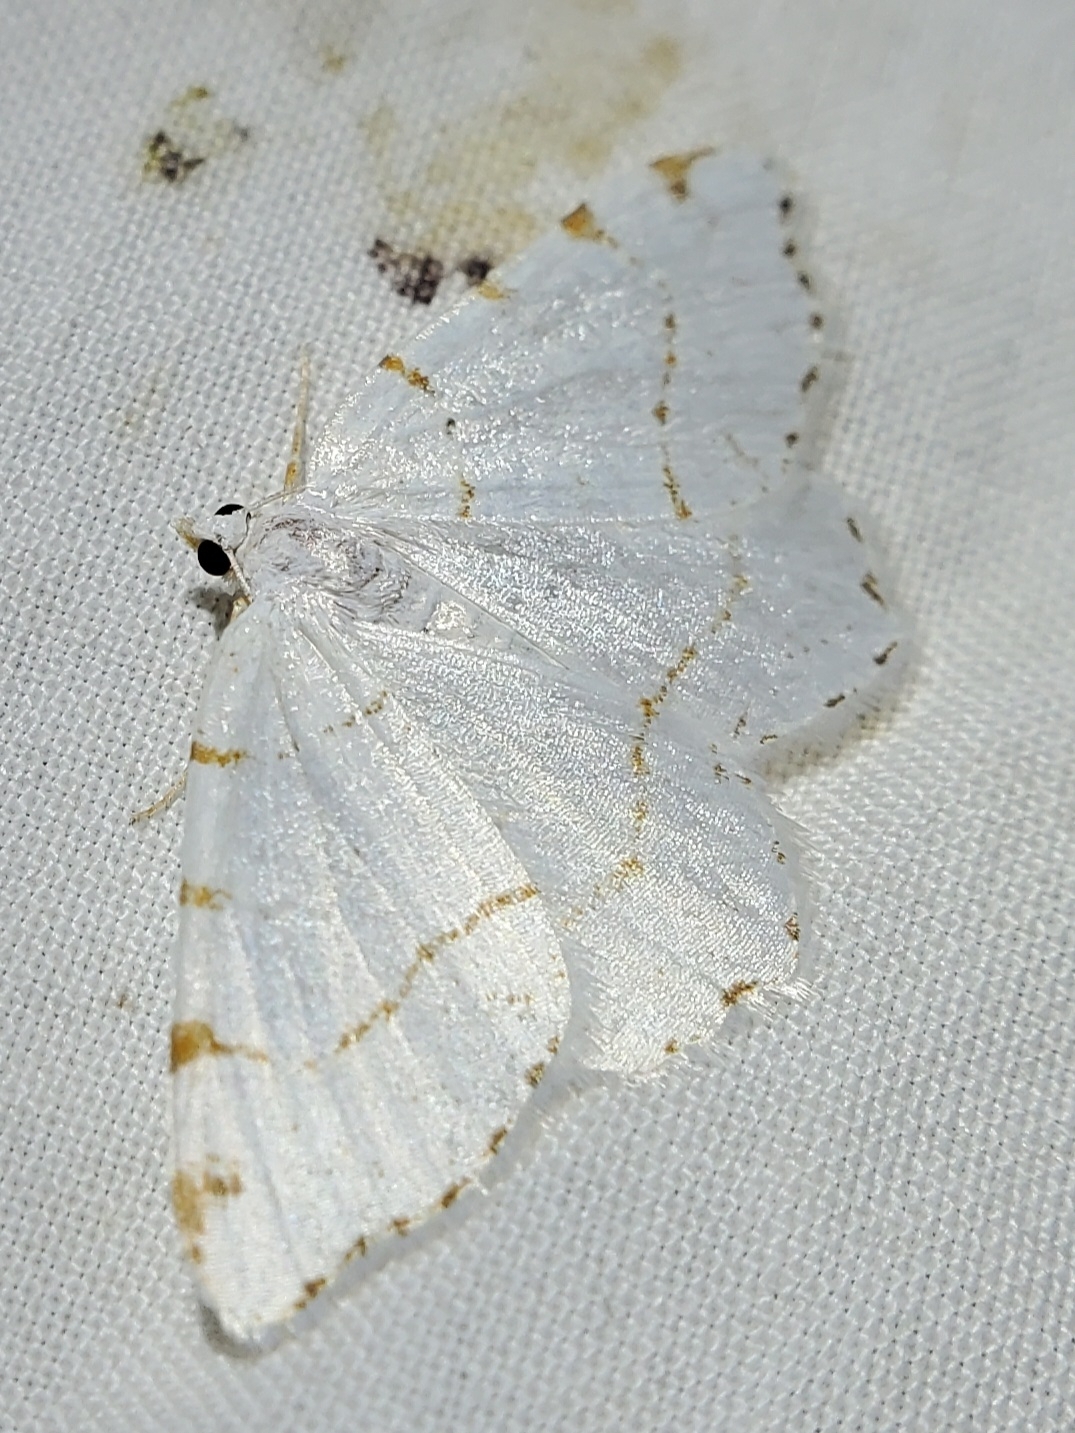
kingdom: Animalia
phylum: Arthropoda
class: Insecta
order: Lepidoptera
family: Geometridae
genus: Macaria
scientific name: Macaria pustularia
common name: Lesser maple spanworm moth
